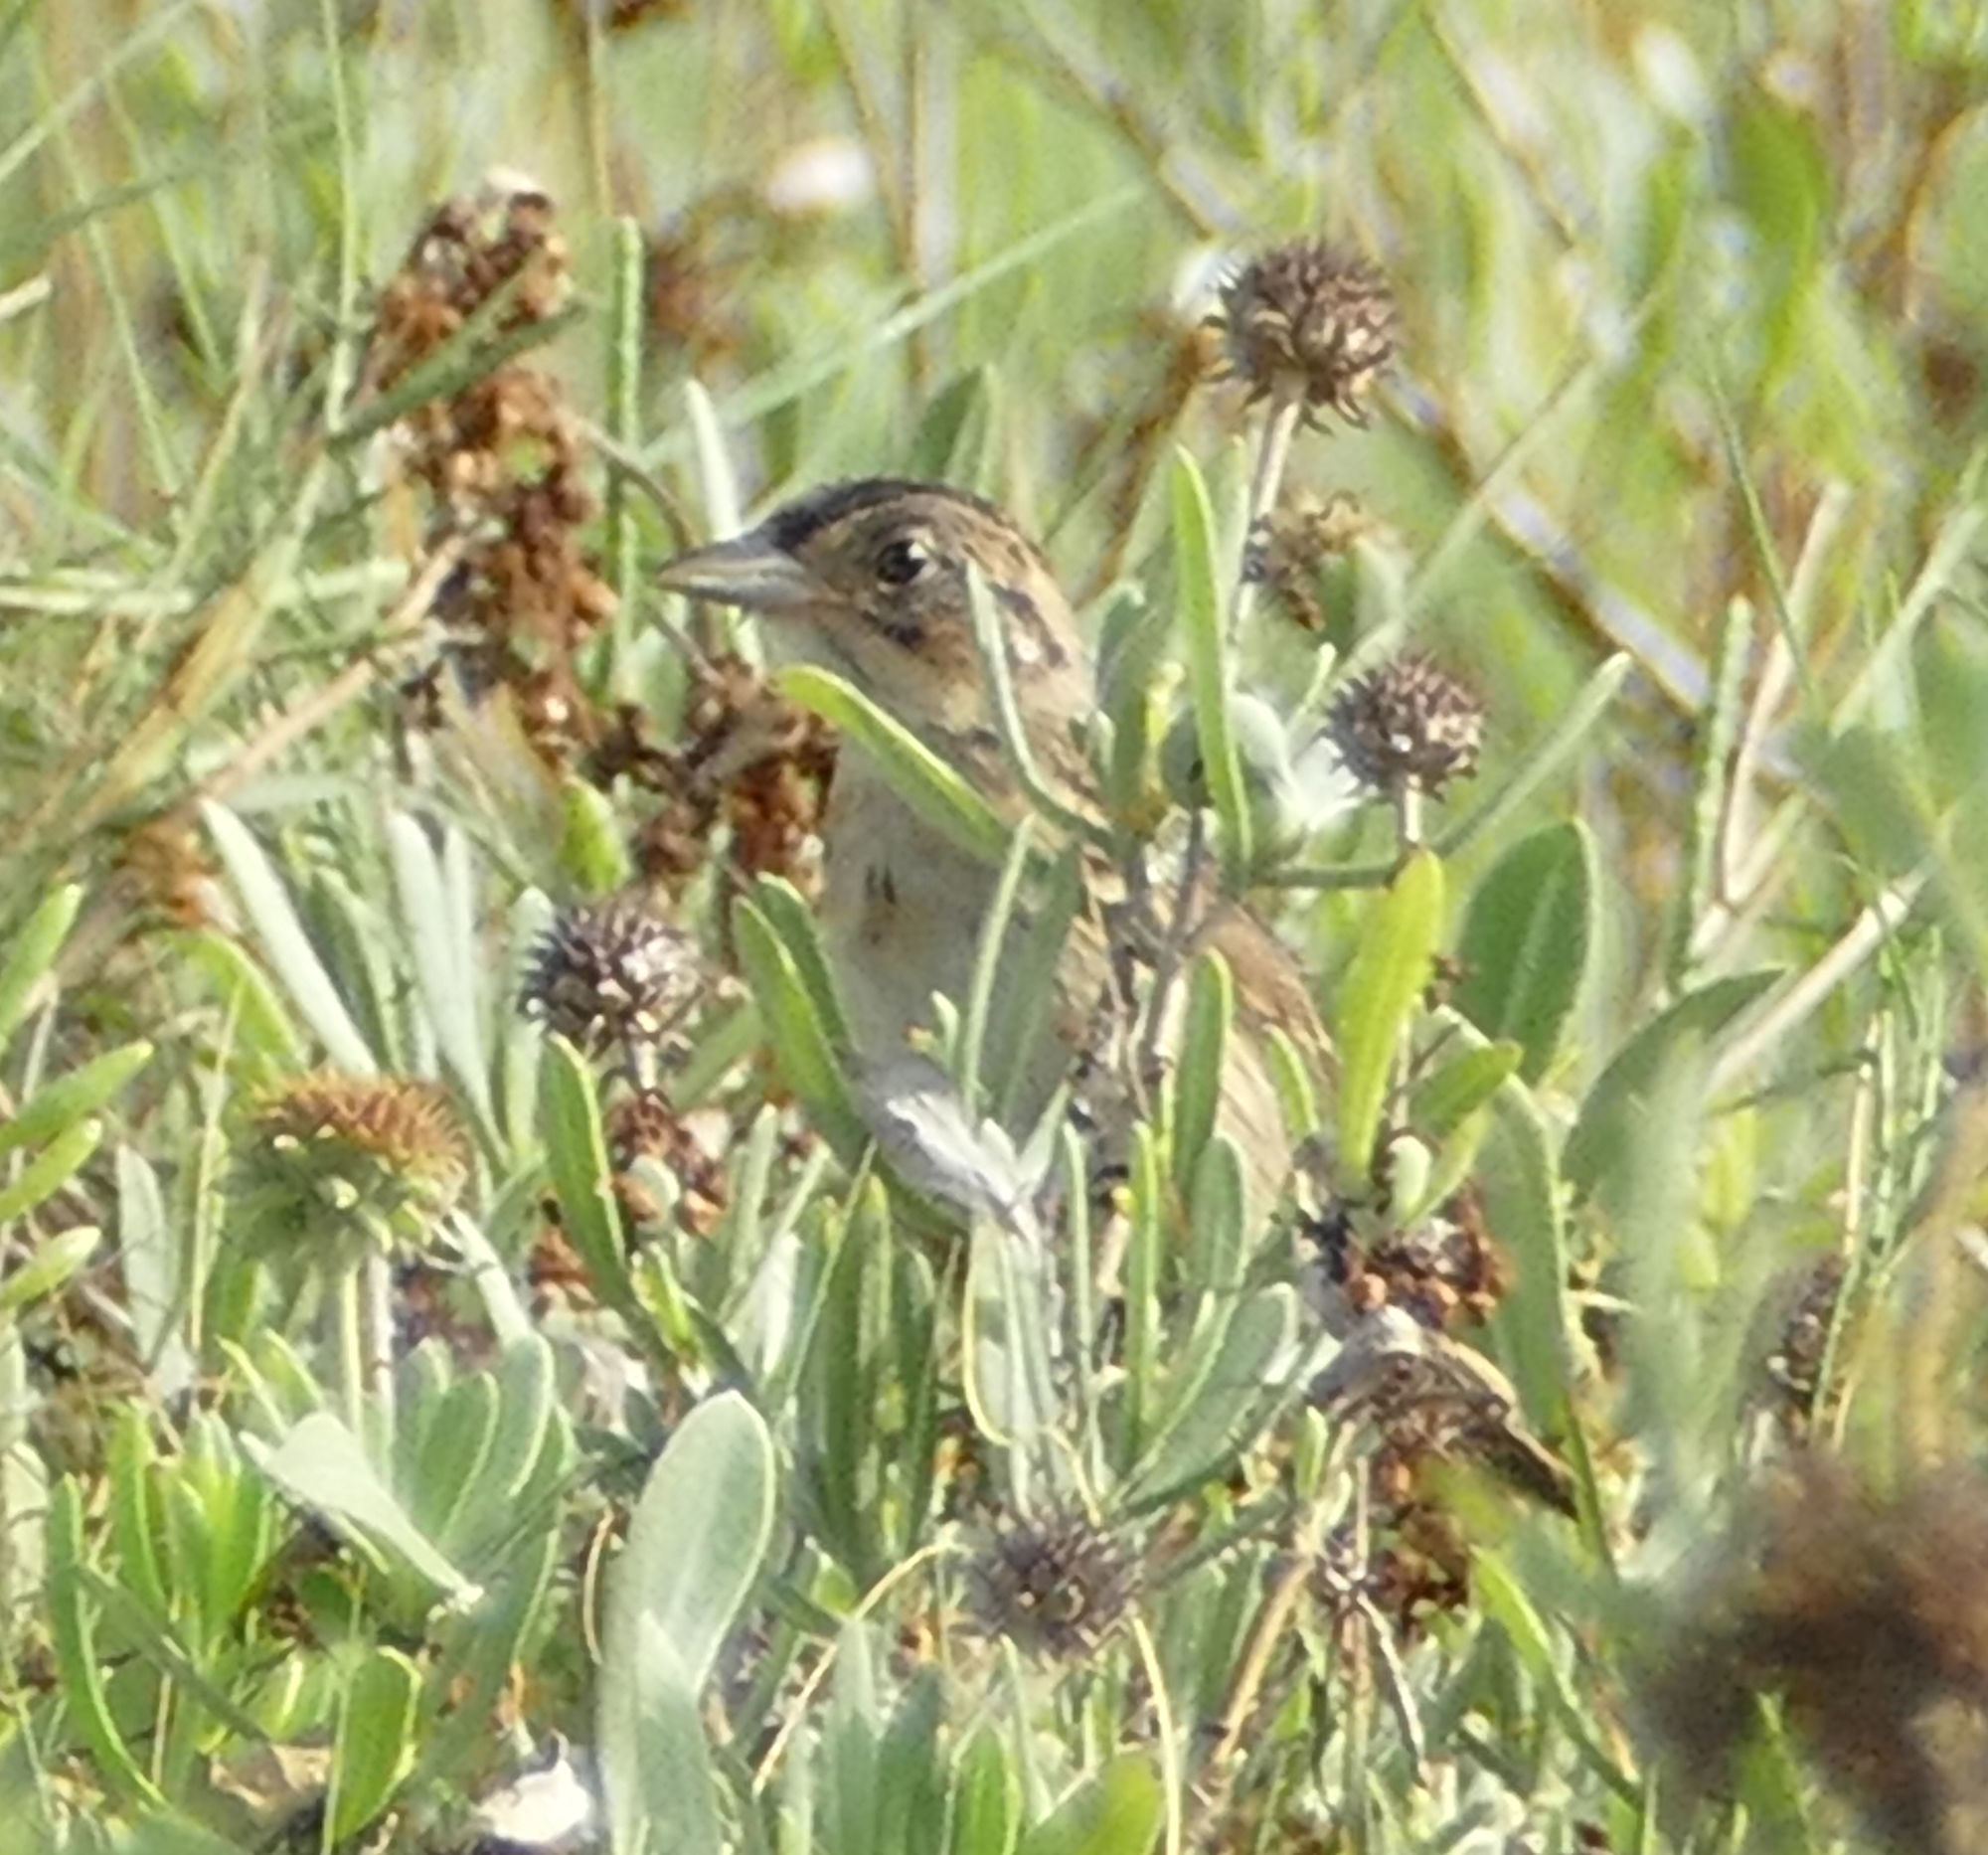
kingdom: Animalia
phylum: Chordata
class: Aves
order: Passeriformes
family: Passerellidae
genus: Ammospiza
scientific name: Ammospiza maritima
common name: Seaside sparrow
